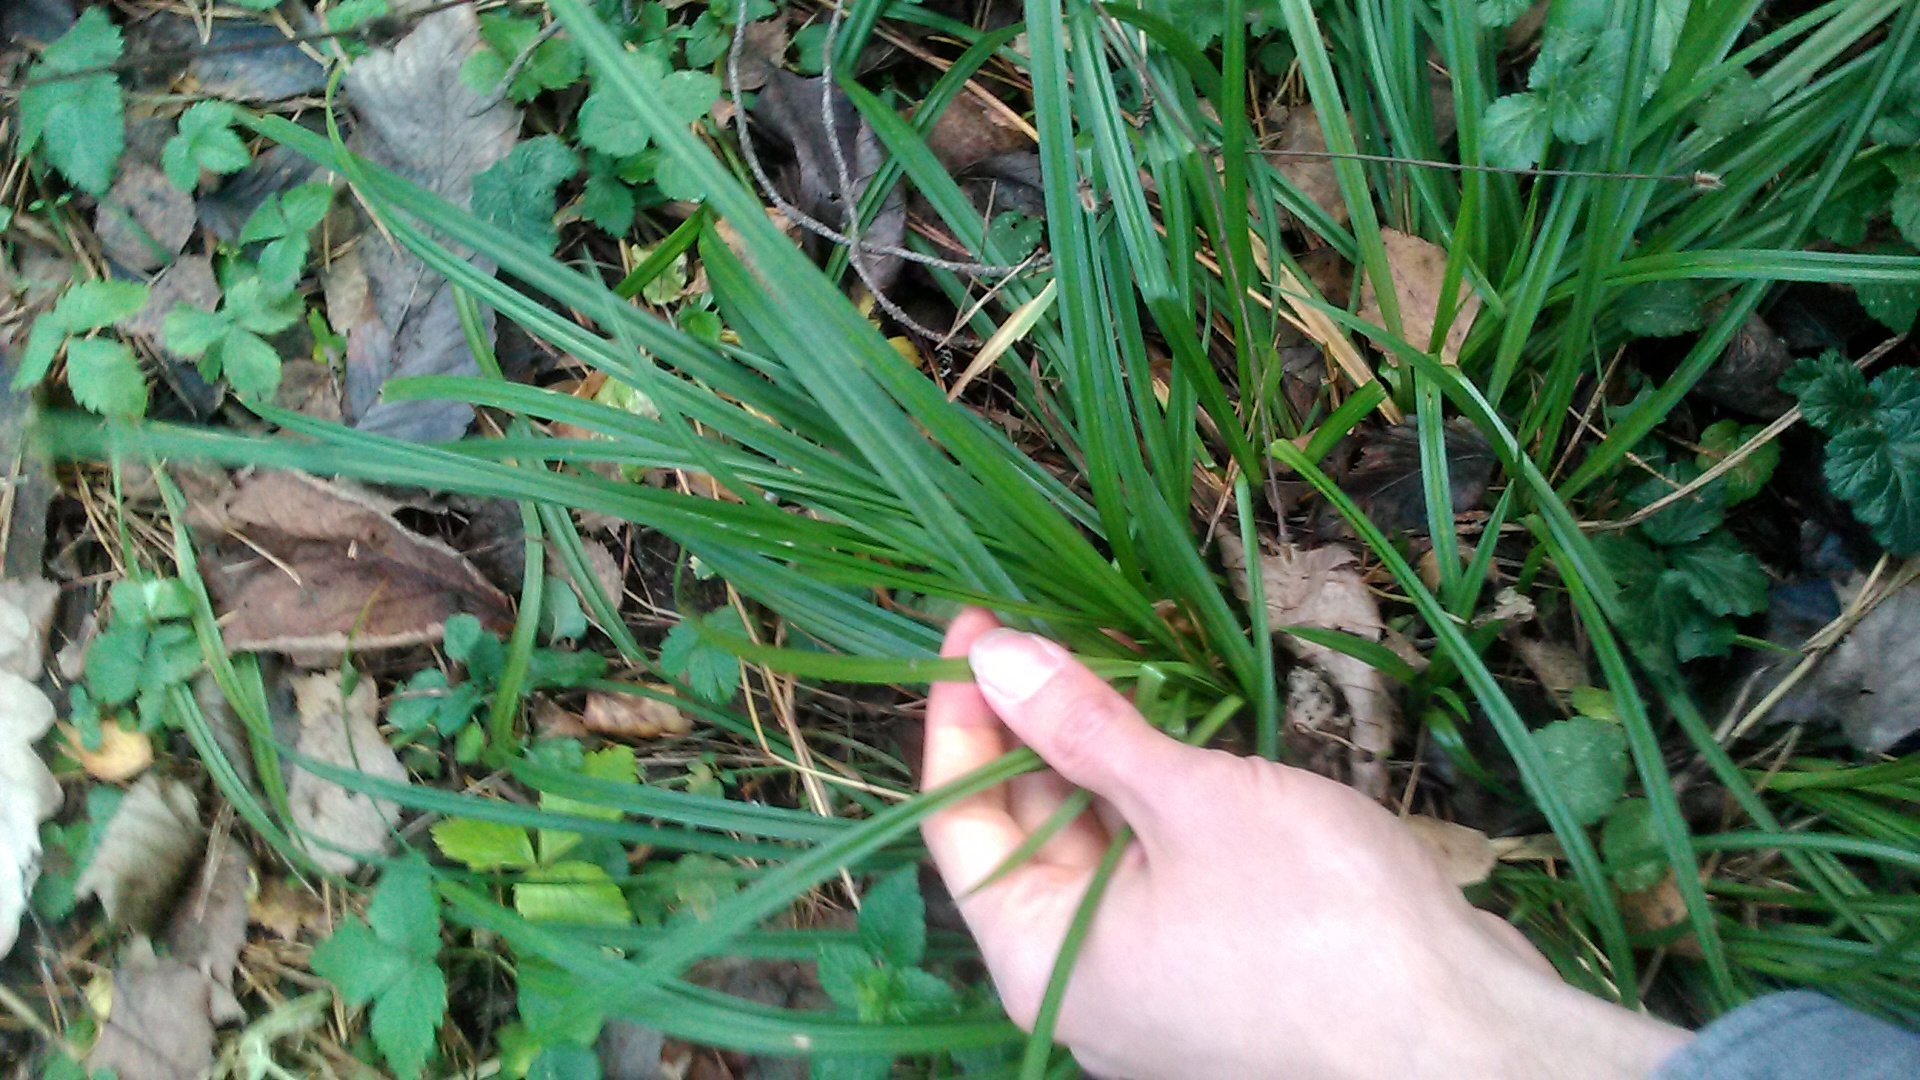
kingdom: Plantae
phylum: Tracheophyta
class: Liliopsida
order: Poales
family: Cyperaceae
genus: Carex
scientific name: Carex pilosa
